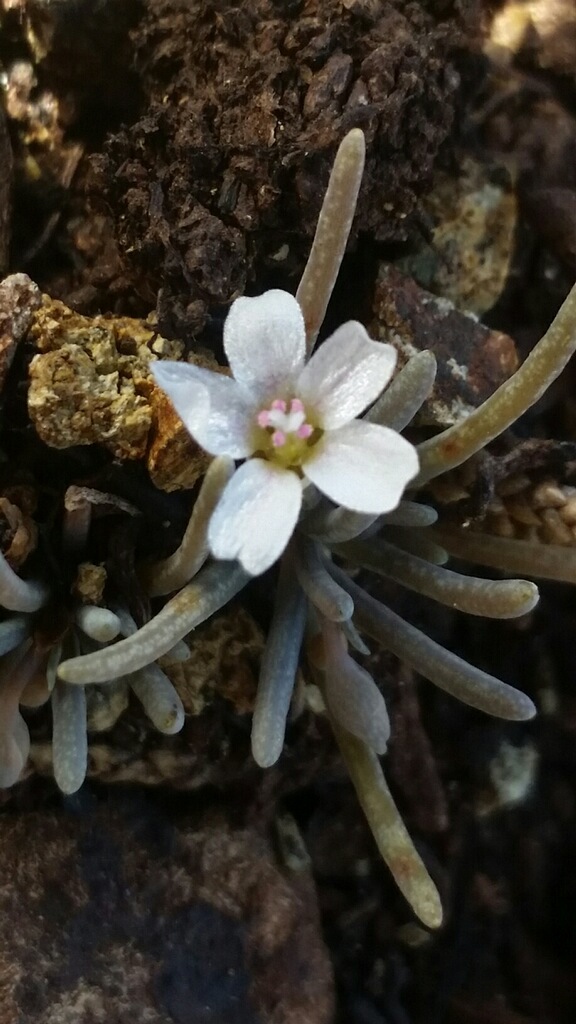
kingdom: Plantae
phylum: Tracheophyta
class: Magnoliopsida
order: Caryophyllales
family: Montiaceae
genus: Claytonia
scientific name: Claytonia exigua
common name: Pale spring beauty
